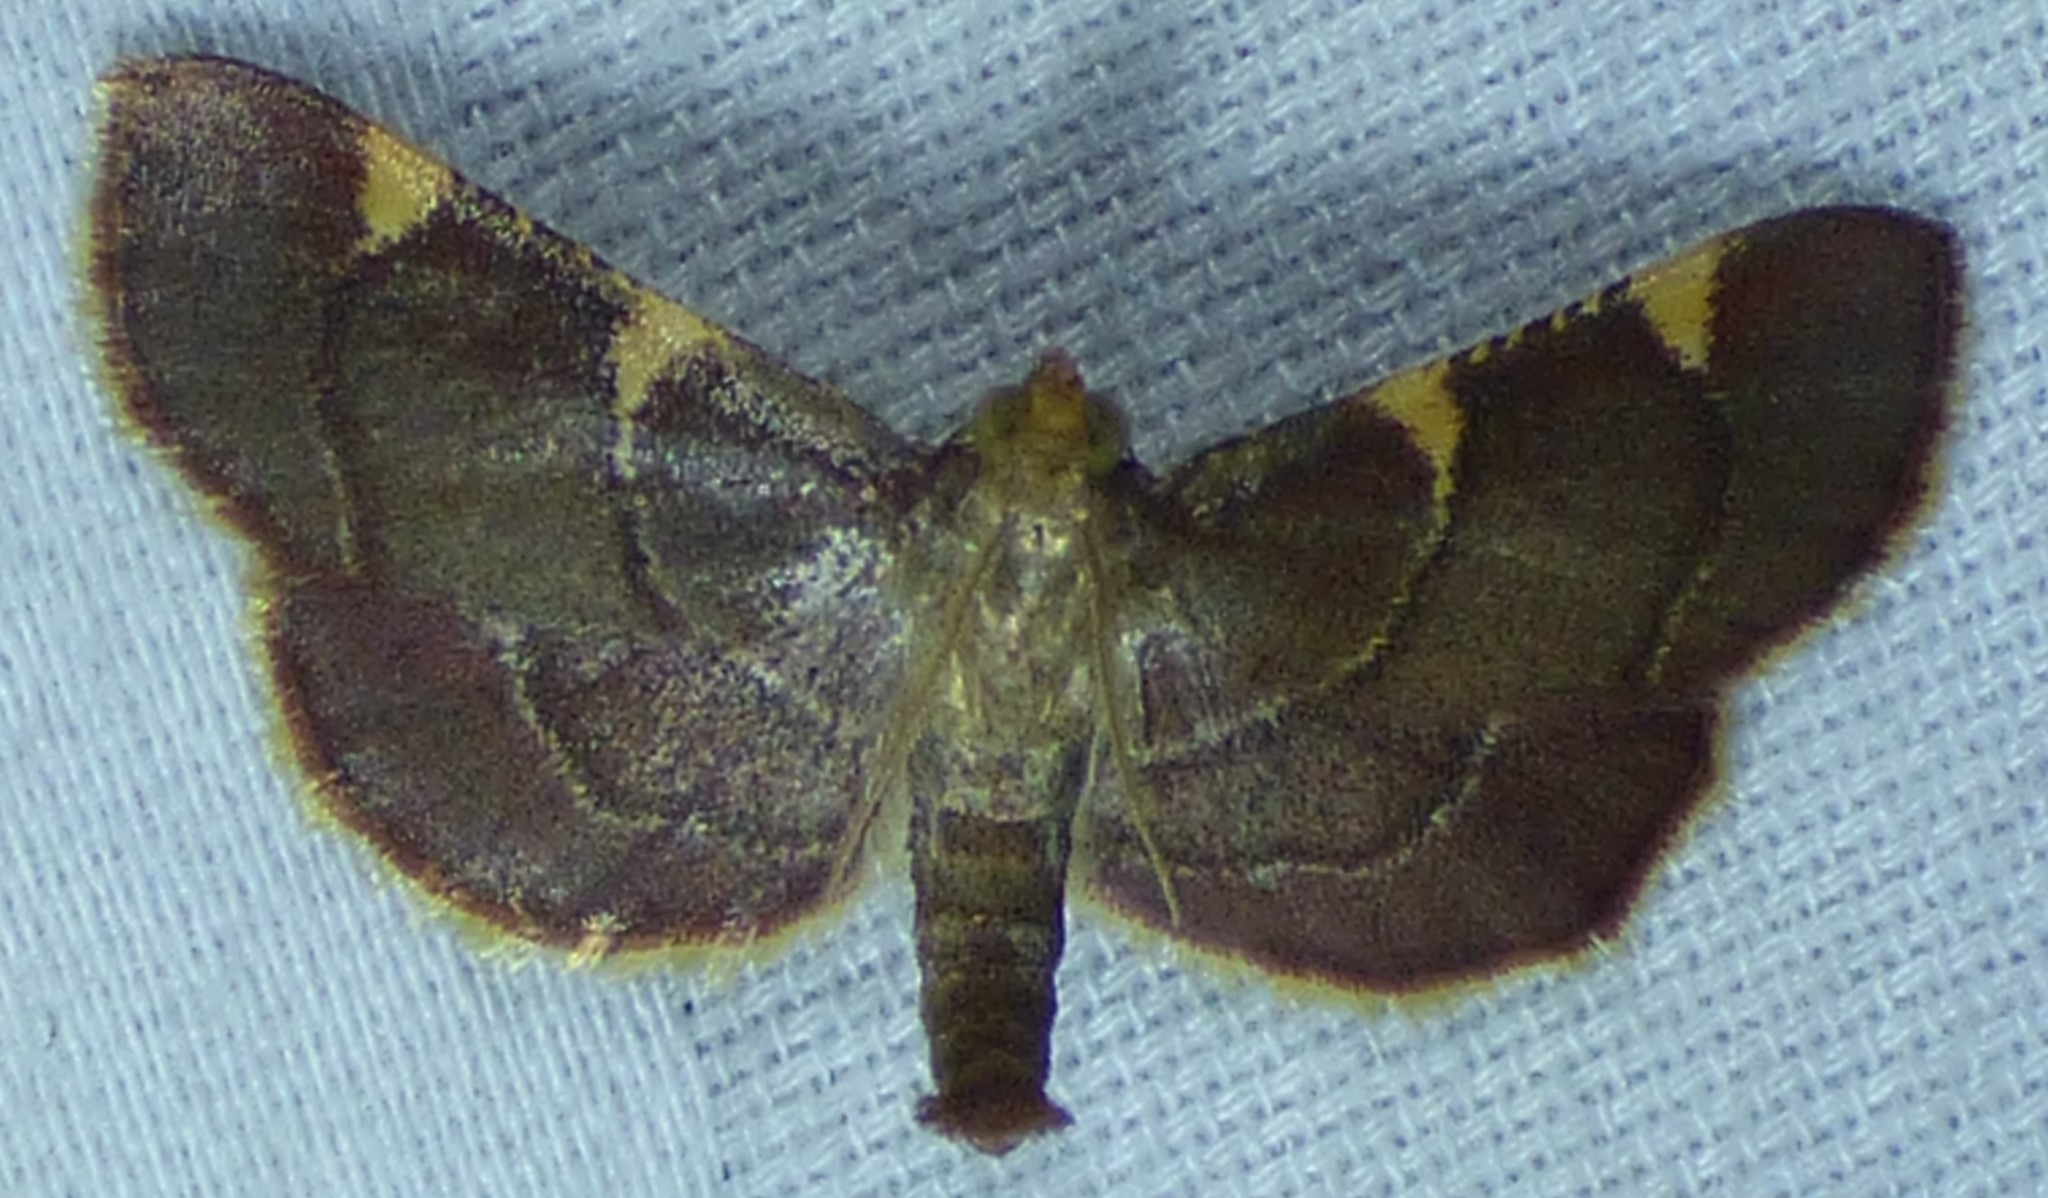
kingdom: Animalia
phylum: Arthropoda
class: Insecta
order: Lepidoptera
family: Pyralidae
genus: Hypsopygia
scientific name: Hypsopygia olinalis
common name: Yellow-fringed dolichomia moth
